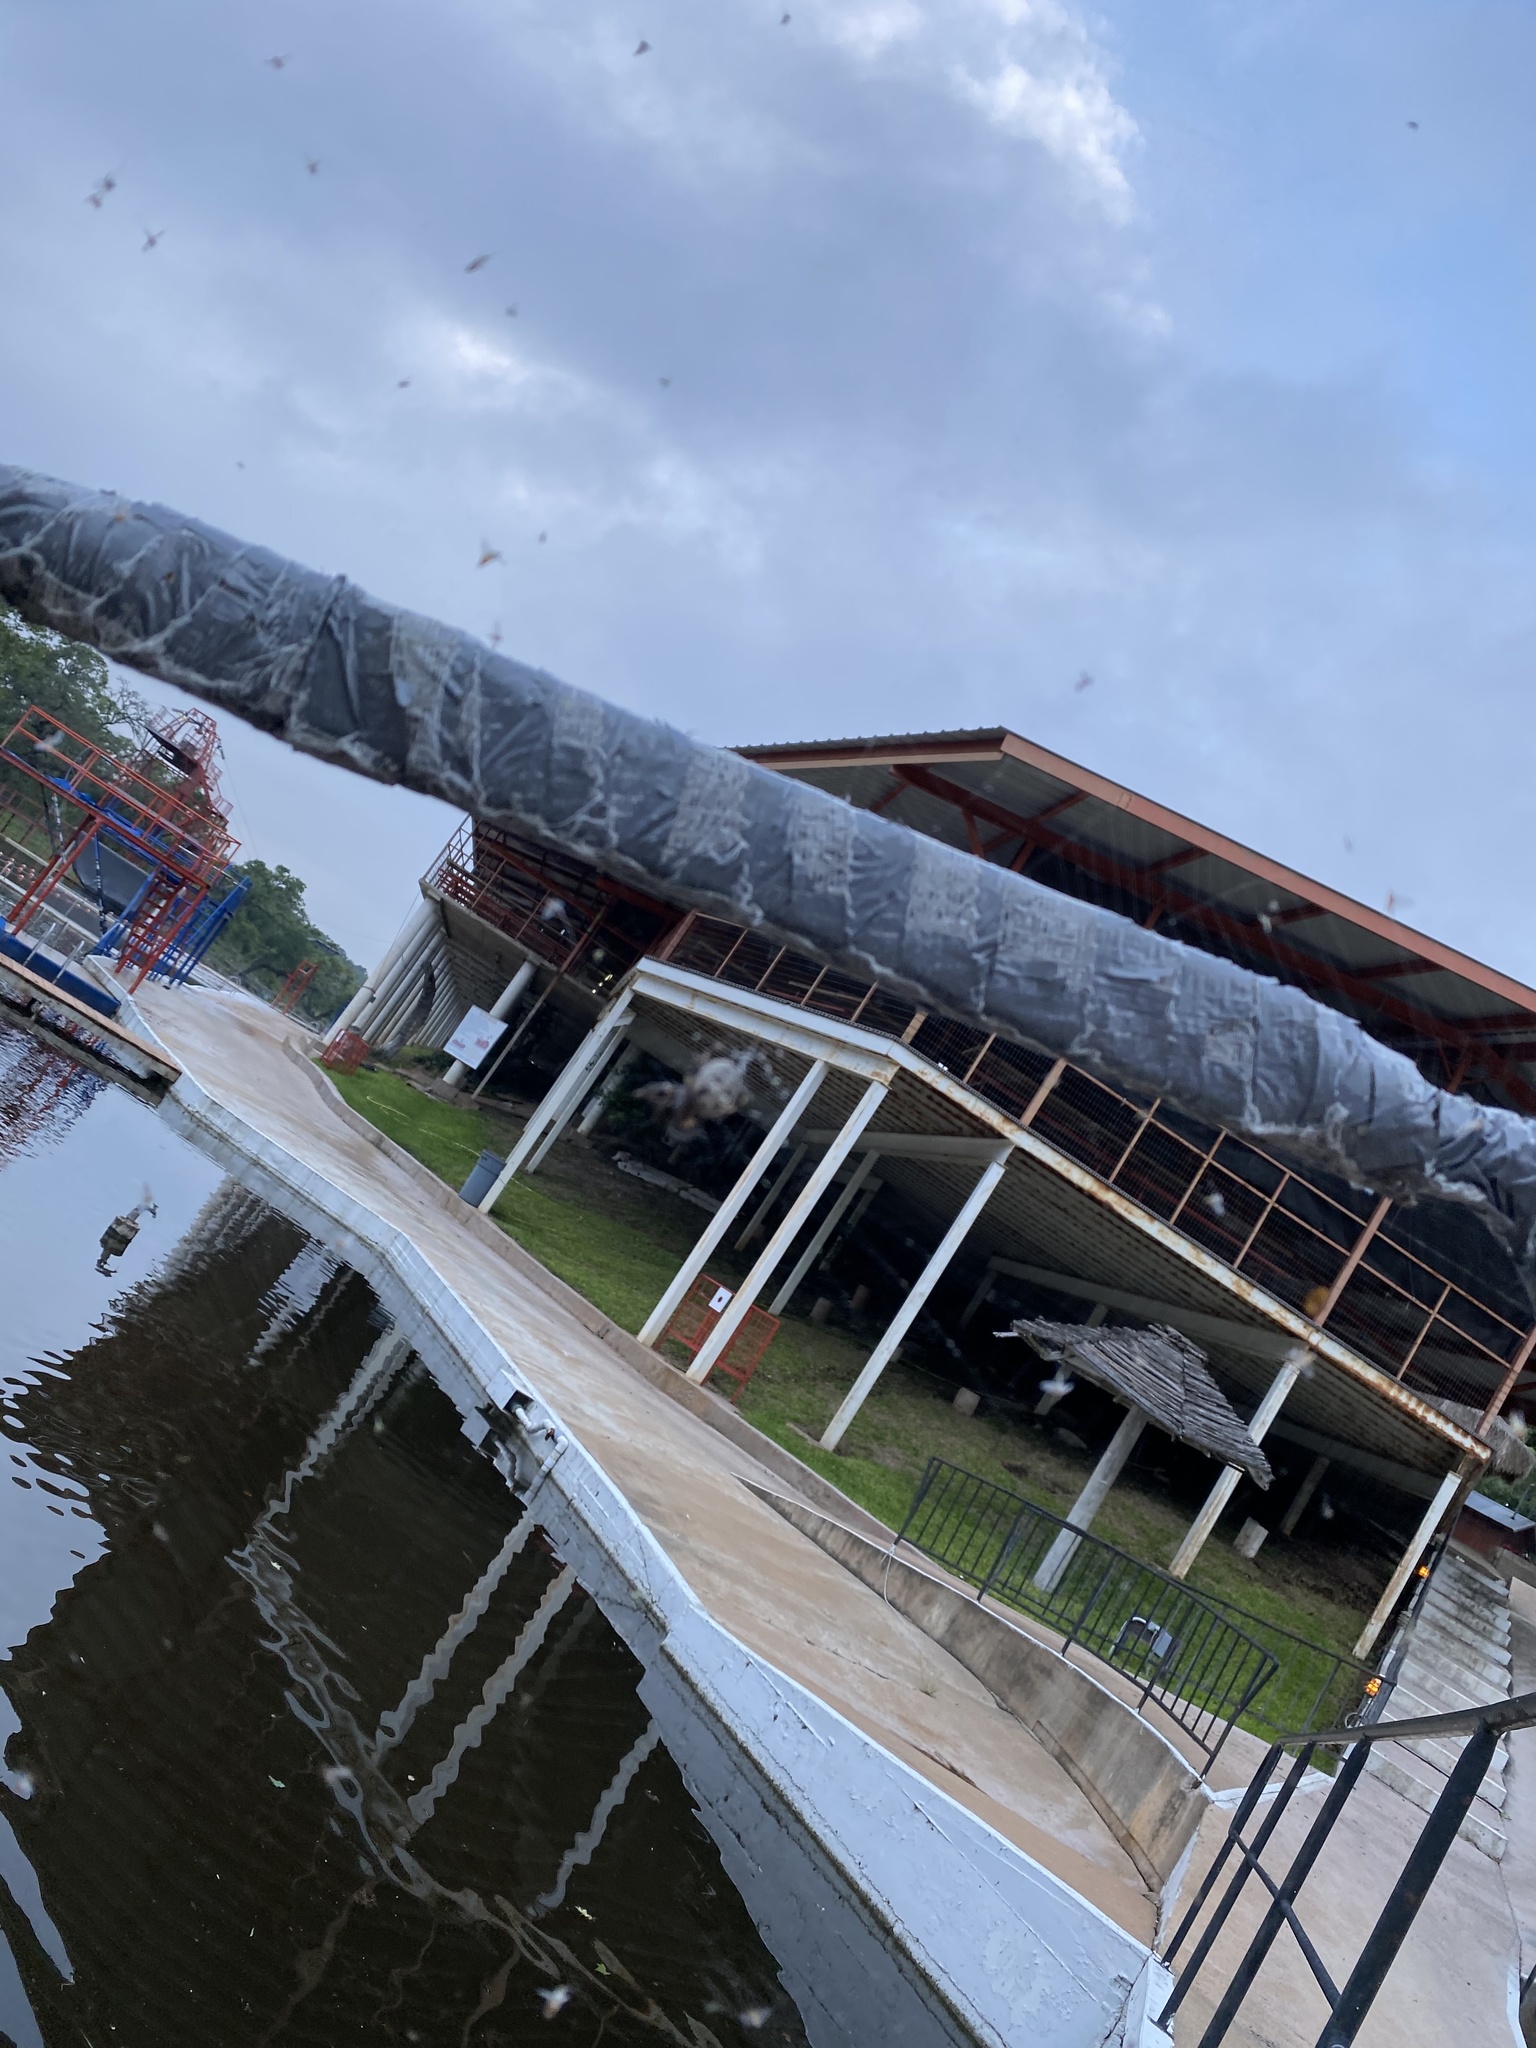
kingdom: Animalia
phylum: Arthropoda
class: Arachnida
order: Araneae
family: Araneidae
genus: Larinioides
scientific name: Larinioides cornutus
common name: Furrow orbweaver
